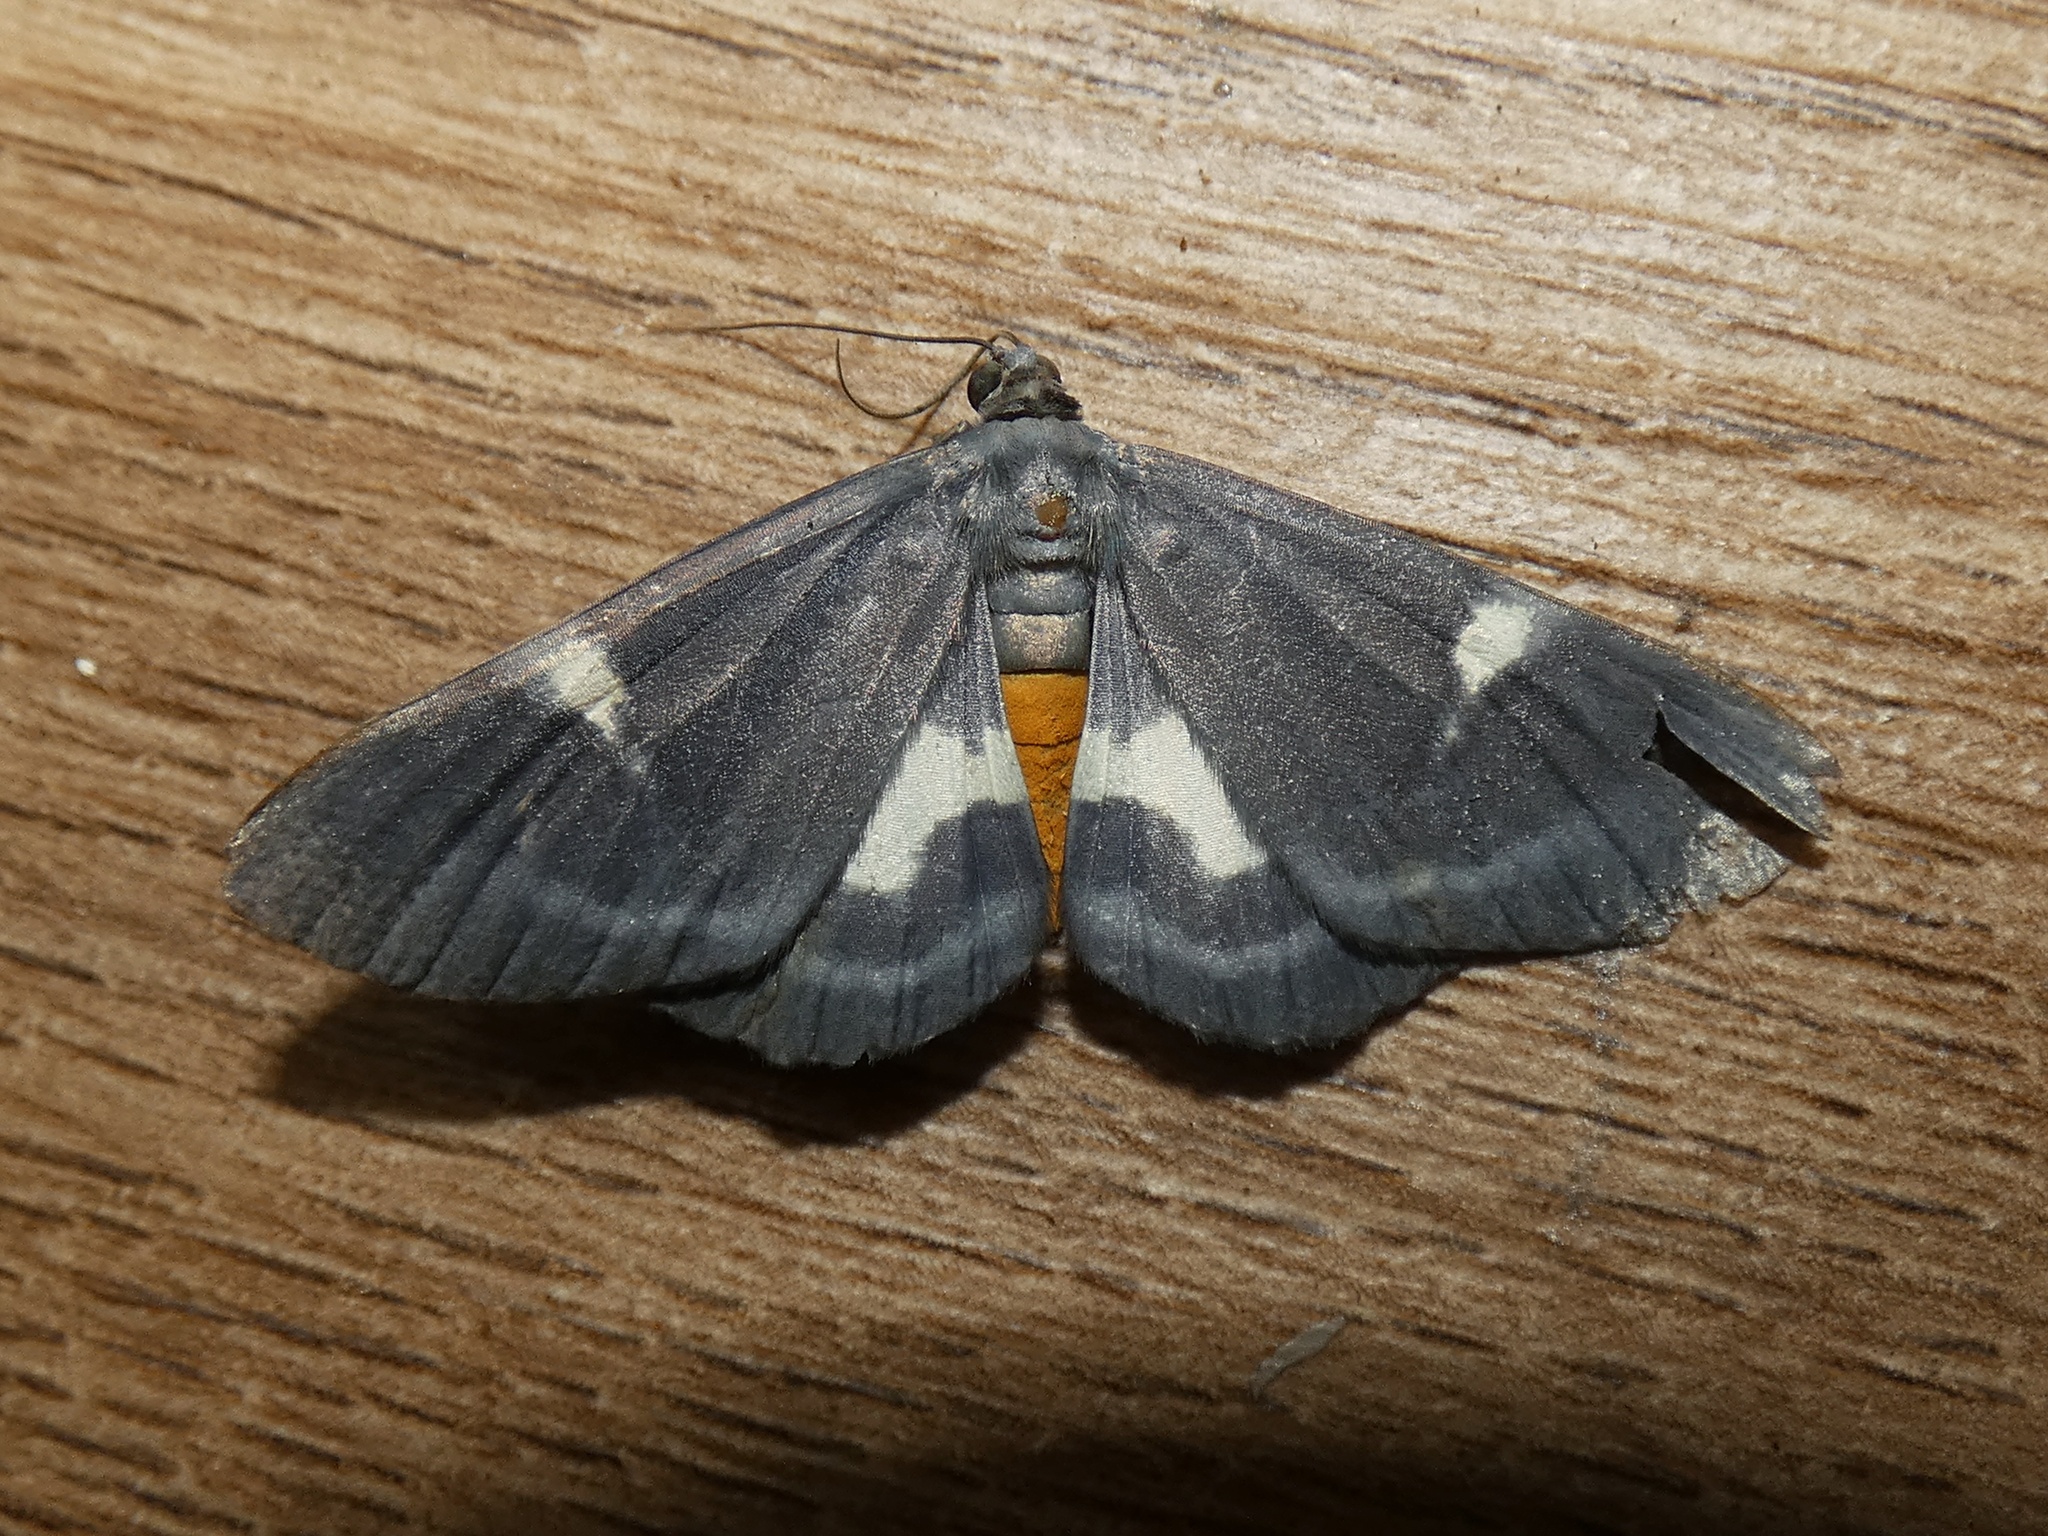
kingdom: Animalia
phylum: Arthropoda
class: Insecta
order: Lepidoptera
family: Geometridae
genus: Craspedosis
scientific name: Craspedosis leucosticta
